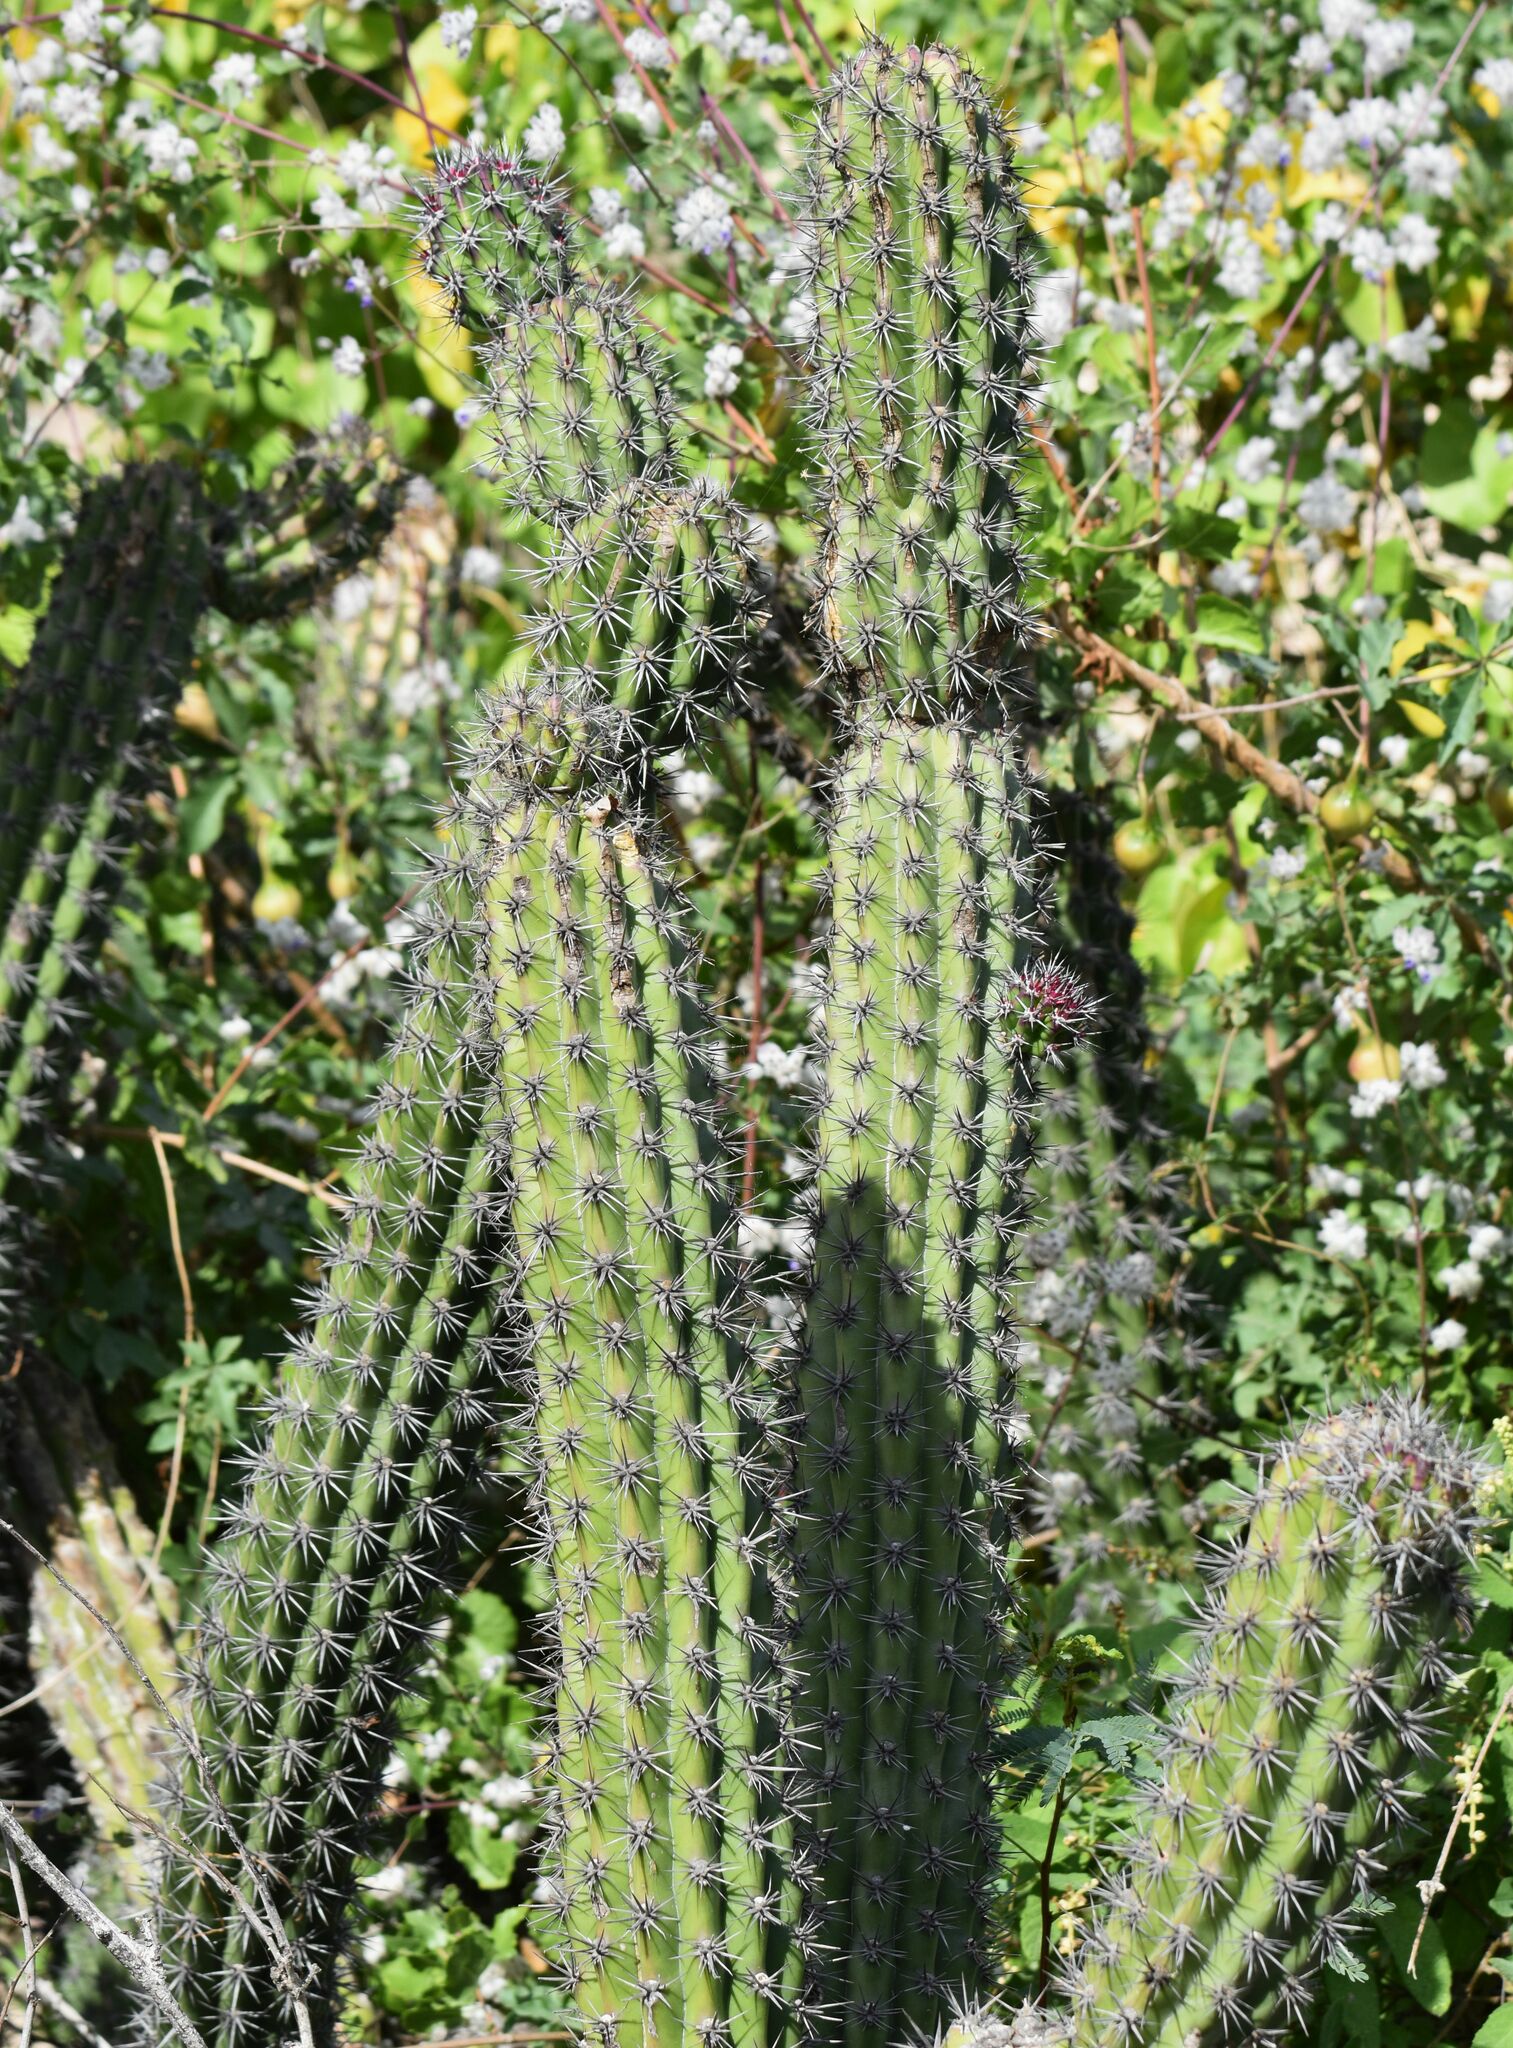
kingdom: Plantae
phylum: Tracheophyta
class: Magnoliopsida
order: Caryophyllales
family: Cactaceae
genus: Stenocereus
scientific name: Stenocereus gummosus
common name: Dagger cactus
